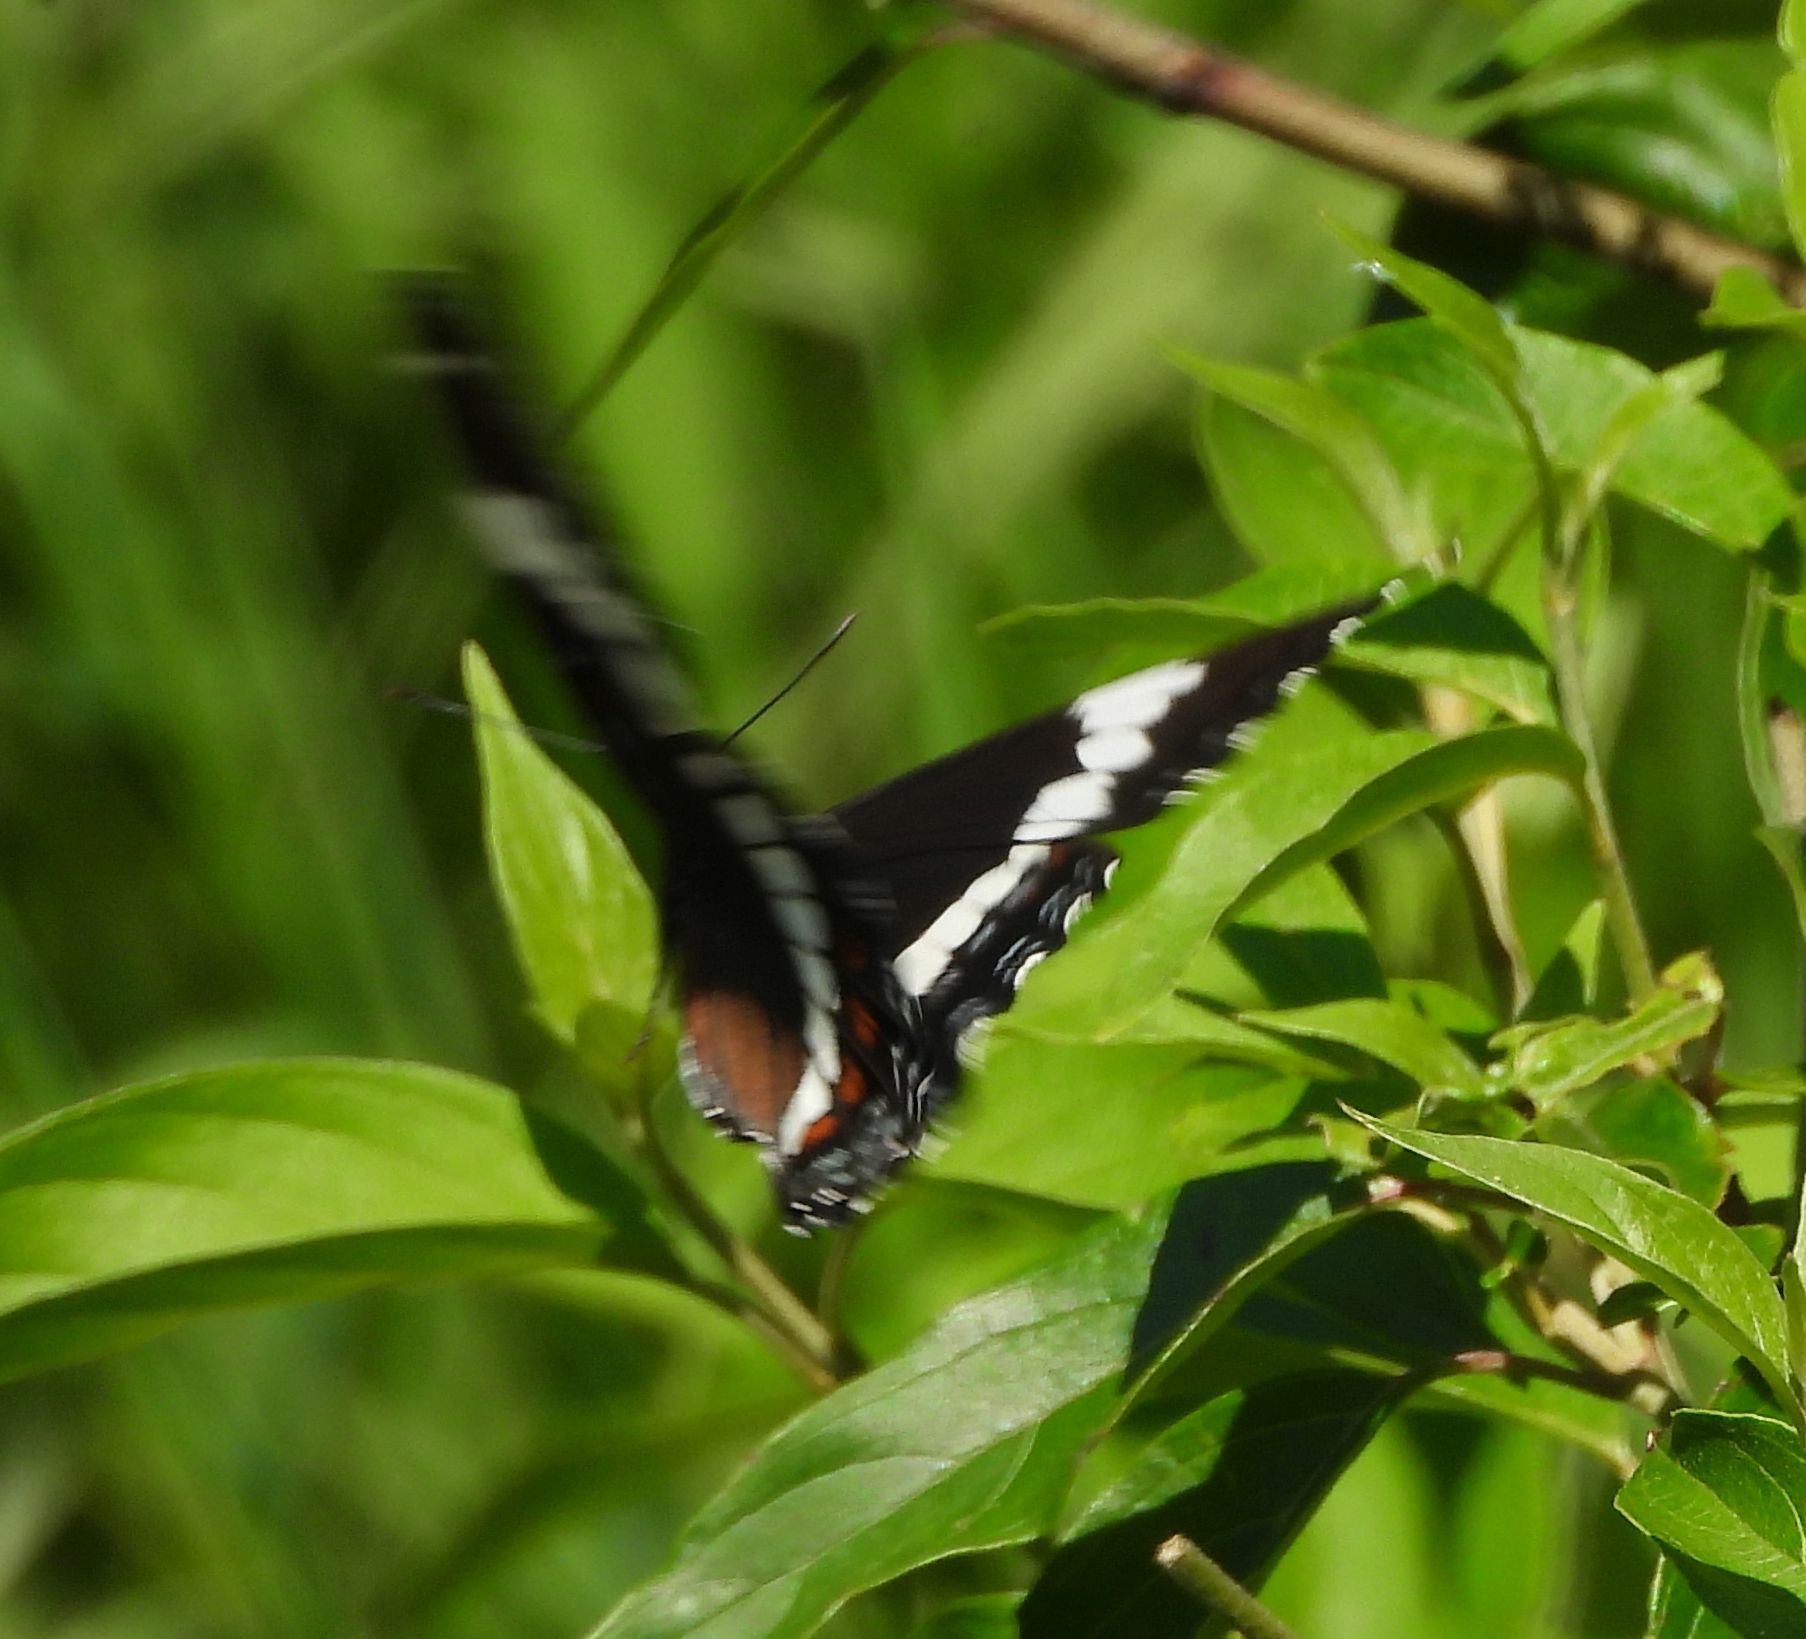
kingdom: Animalia
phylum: Arthropoda
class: Insecta
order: Lepidoptera
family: Nymphalidae
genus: Limenitis
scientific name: Limenitis arthemis
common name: Red-spotted admiral
